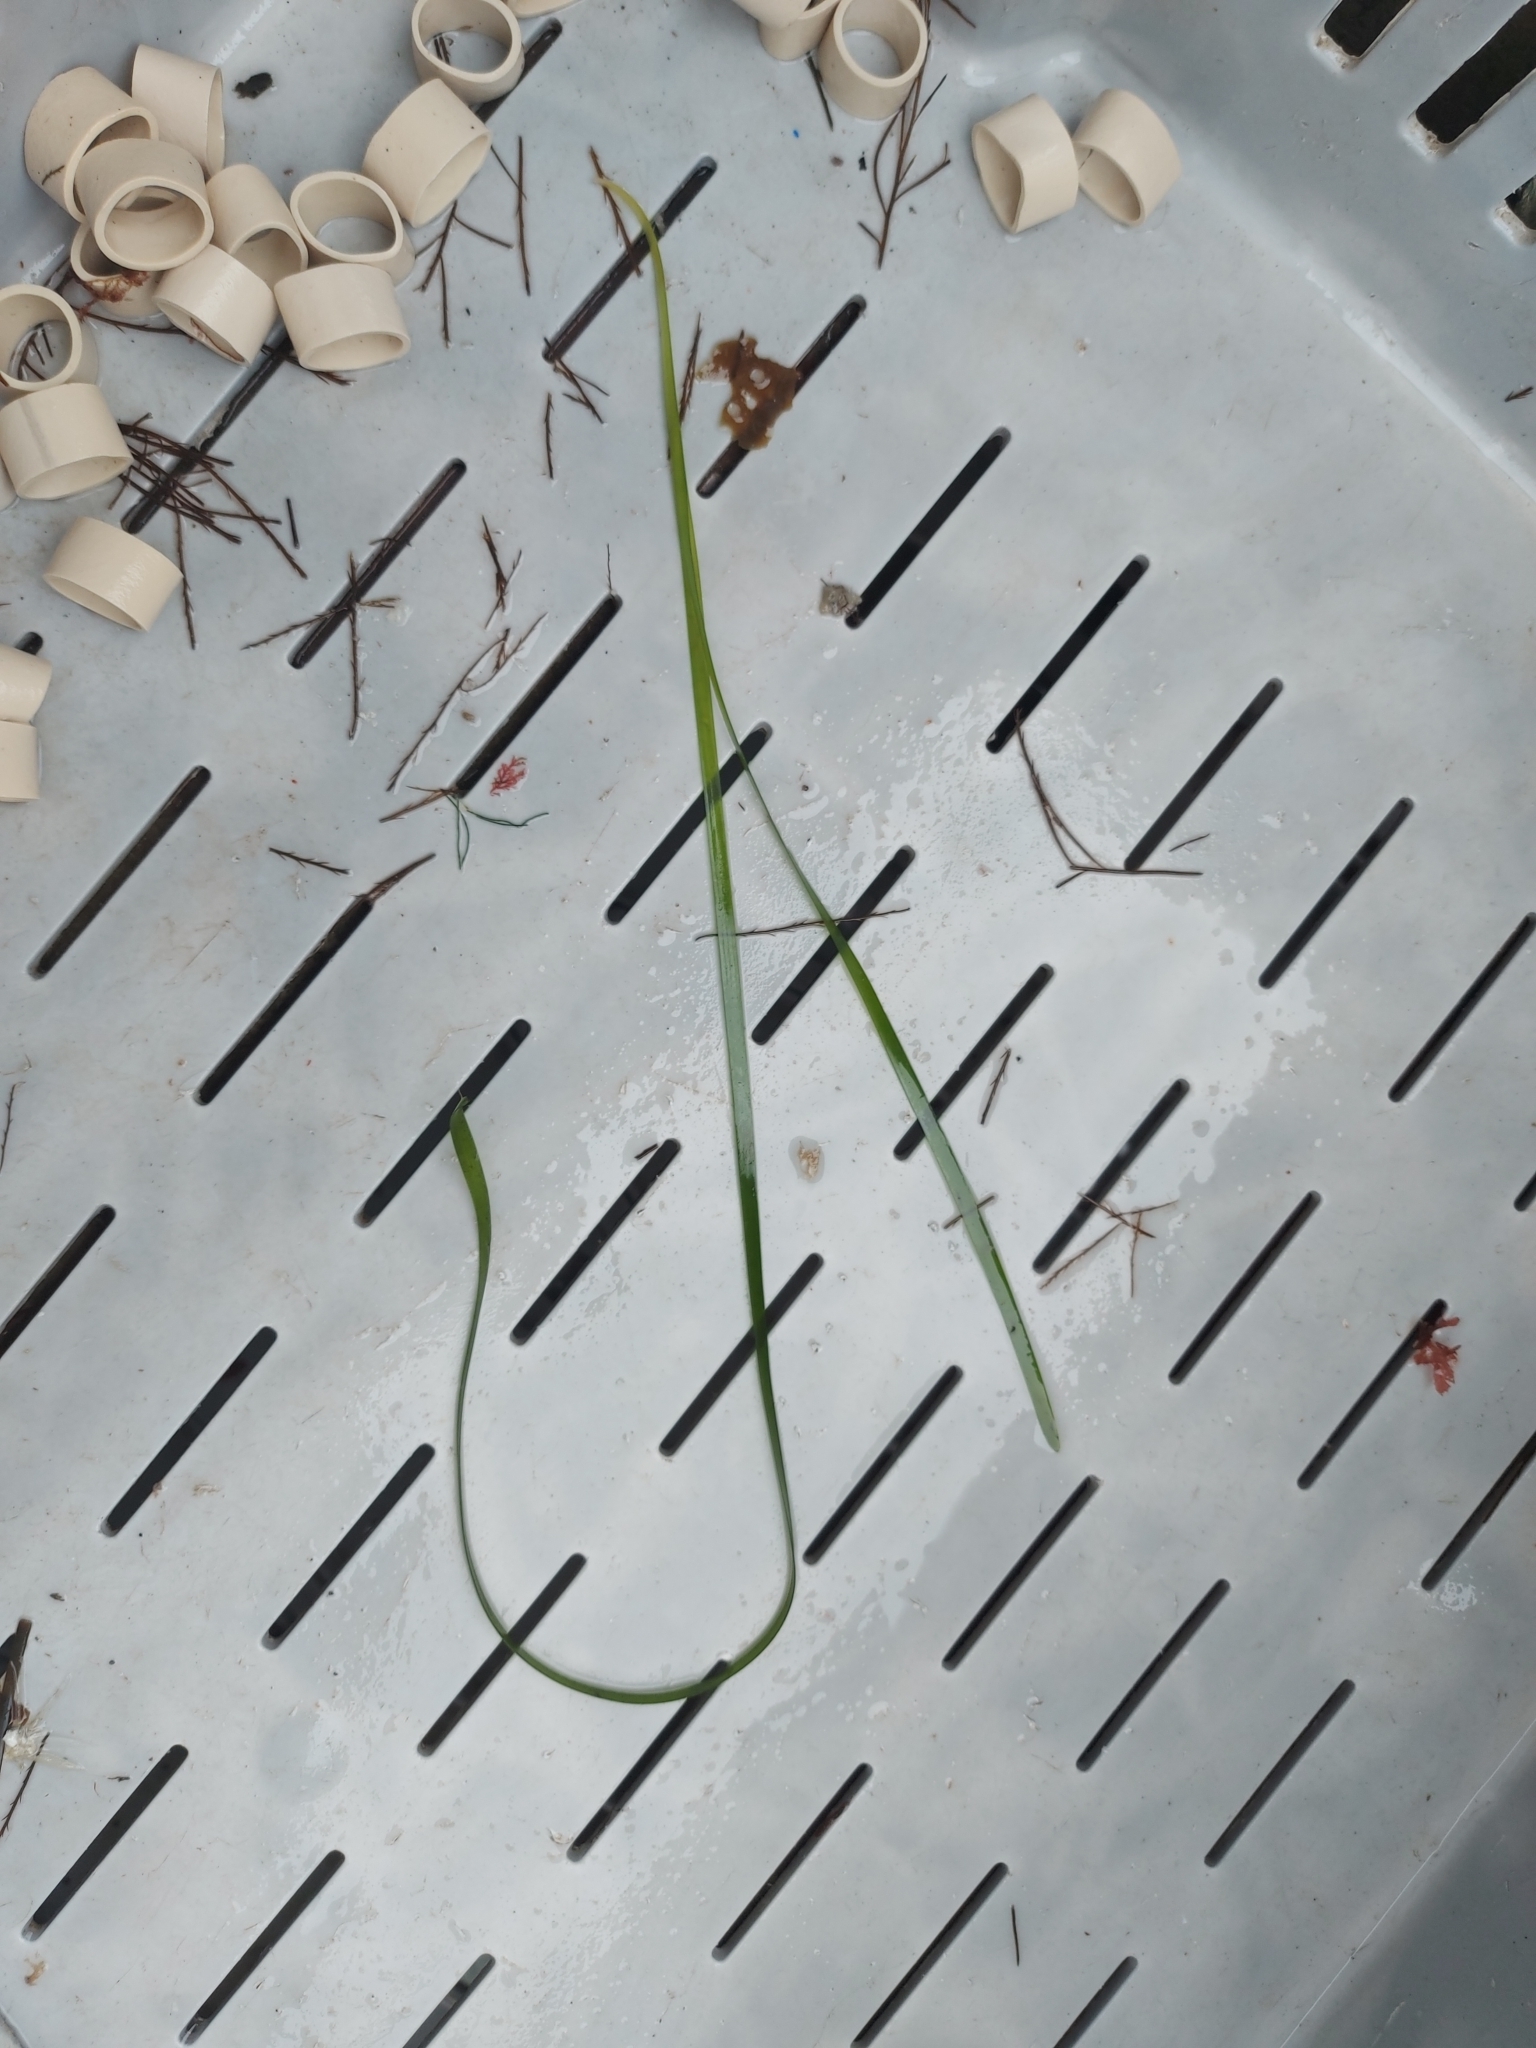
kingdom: Plantae
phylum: Tracheophyta
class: Liliopsida
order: Alismatales
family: Zosteraceae
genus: Zostera
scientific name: Zostera marina
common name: Eelgrass
